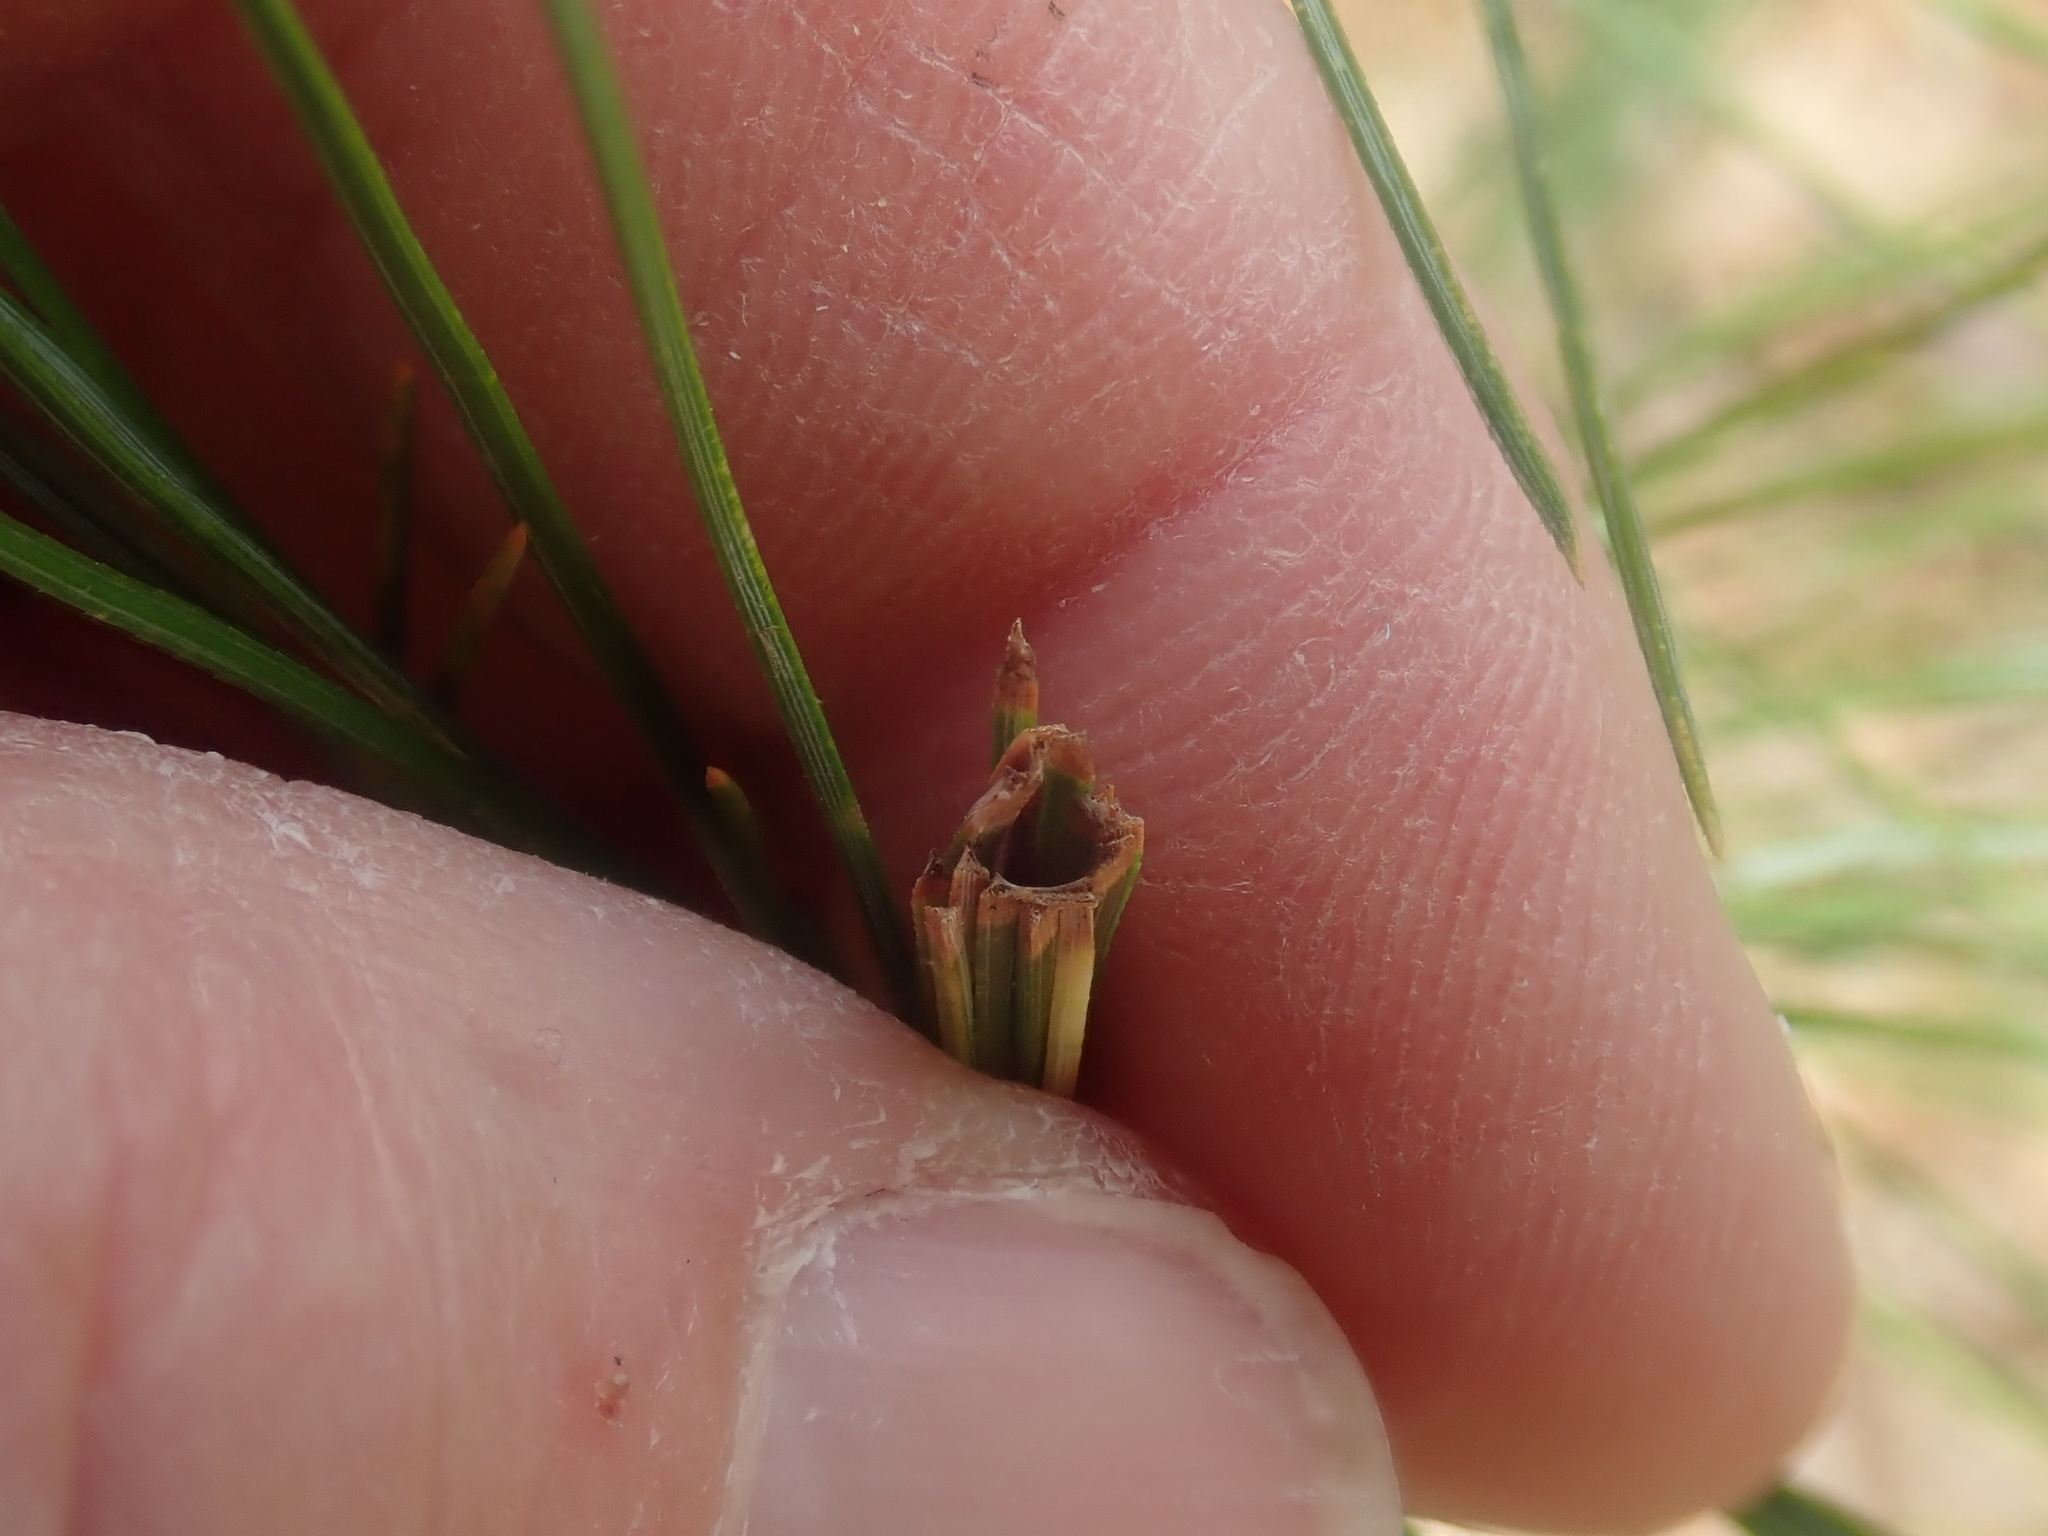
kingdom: Animalia
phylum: Arthropoda
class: Insecta
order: Lepidoptera
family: Tortricidae
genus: Argyrotaenia
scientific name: Argyrotaenia pinatubana
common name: Pine tube moth
